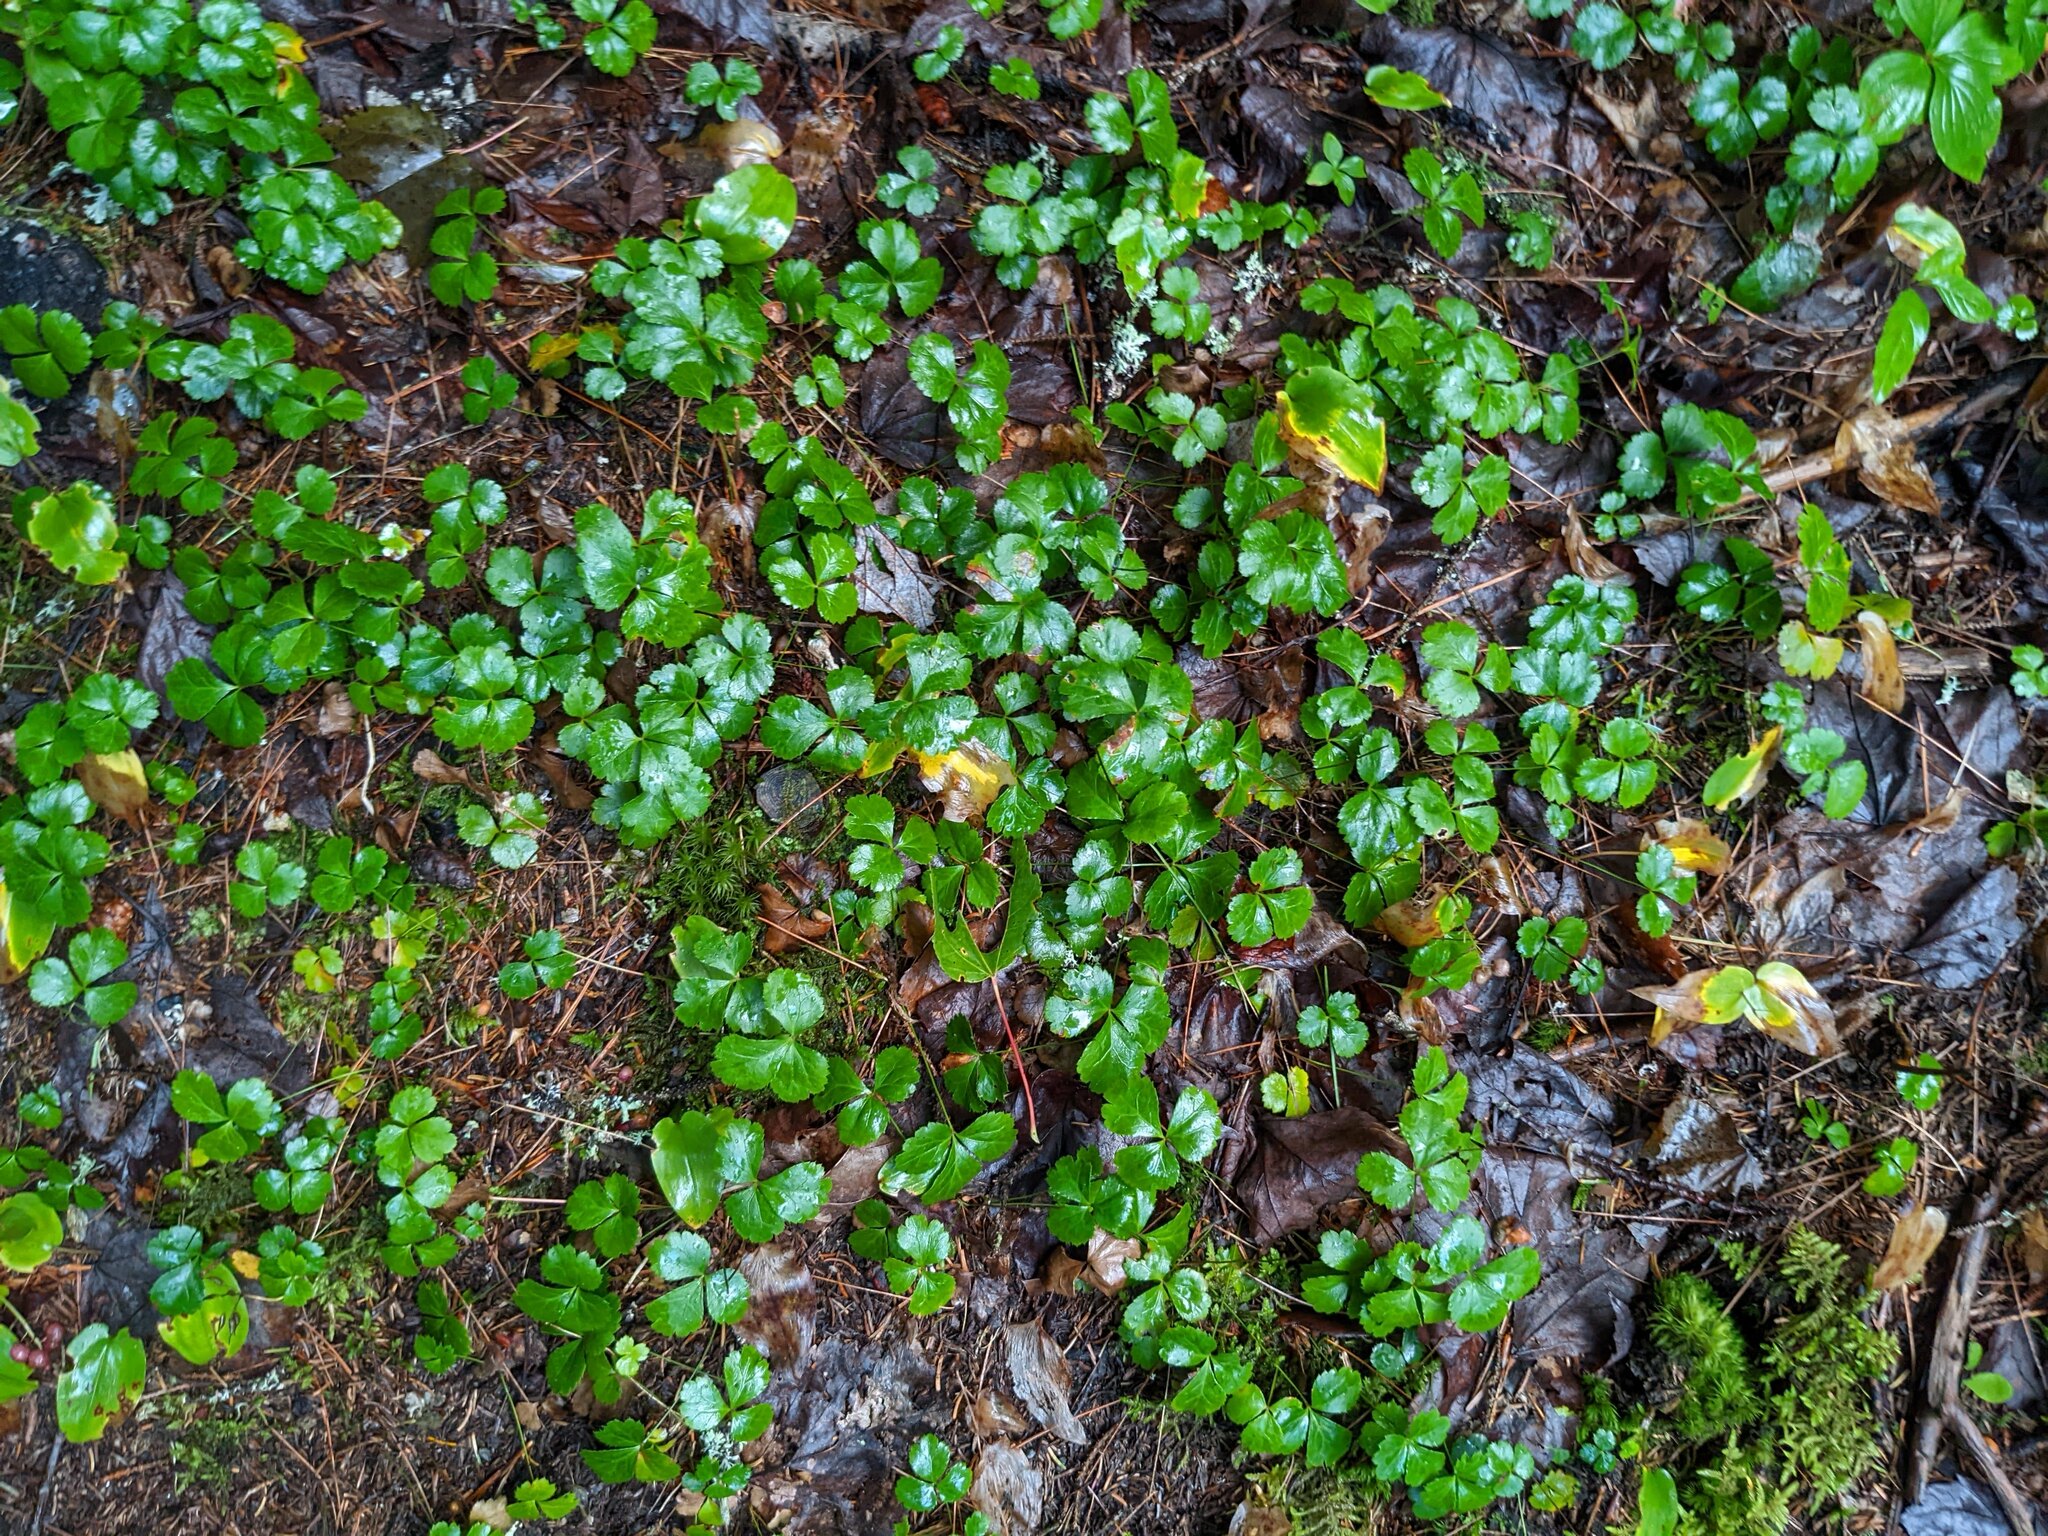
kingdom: Plantae
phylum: Tracheophyta
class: Magnoliopsida
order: Ranunculales
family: Ranunculaceae
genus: Coptis
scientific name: Coptis trifolia
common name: Canker-root
